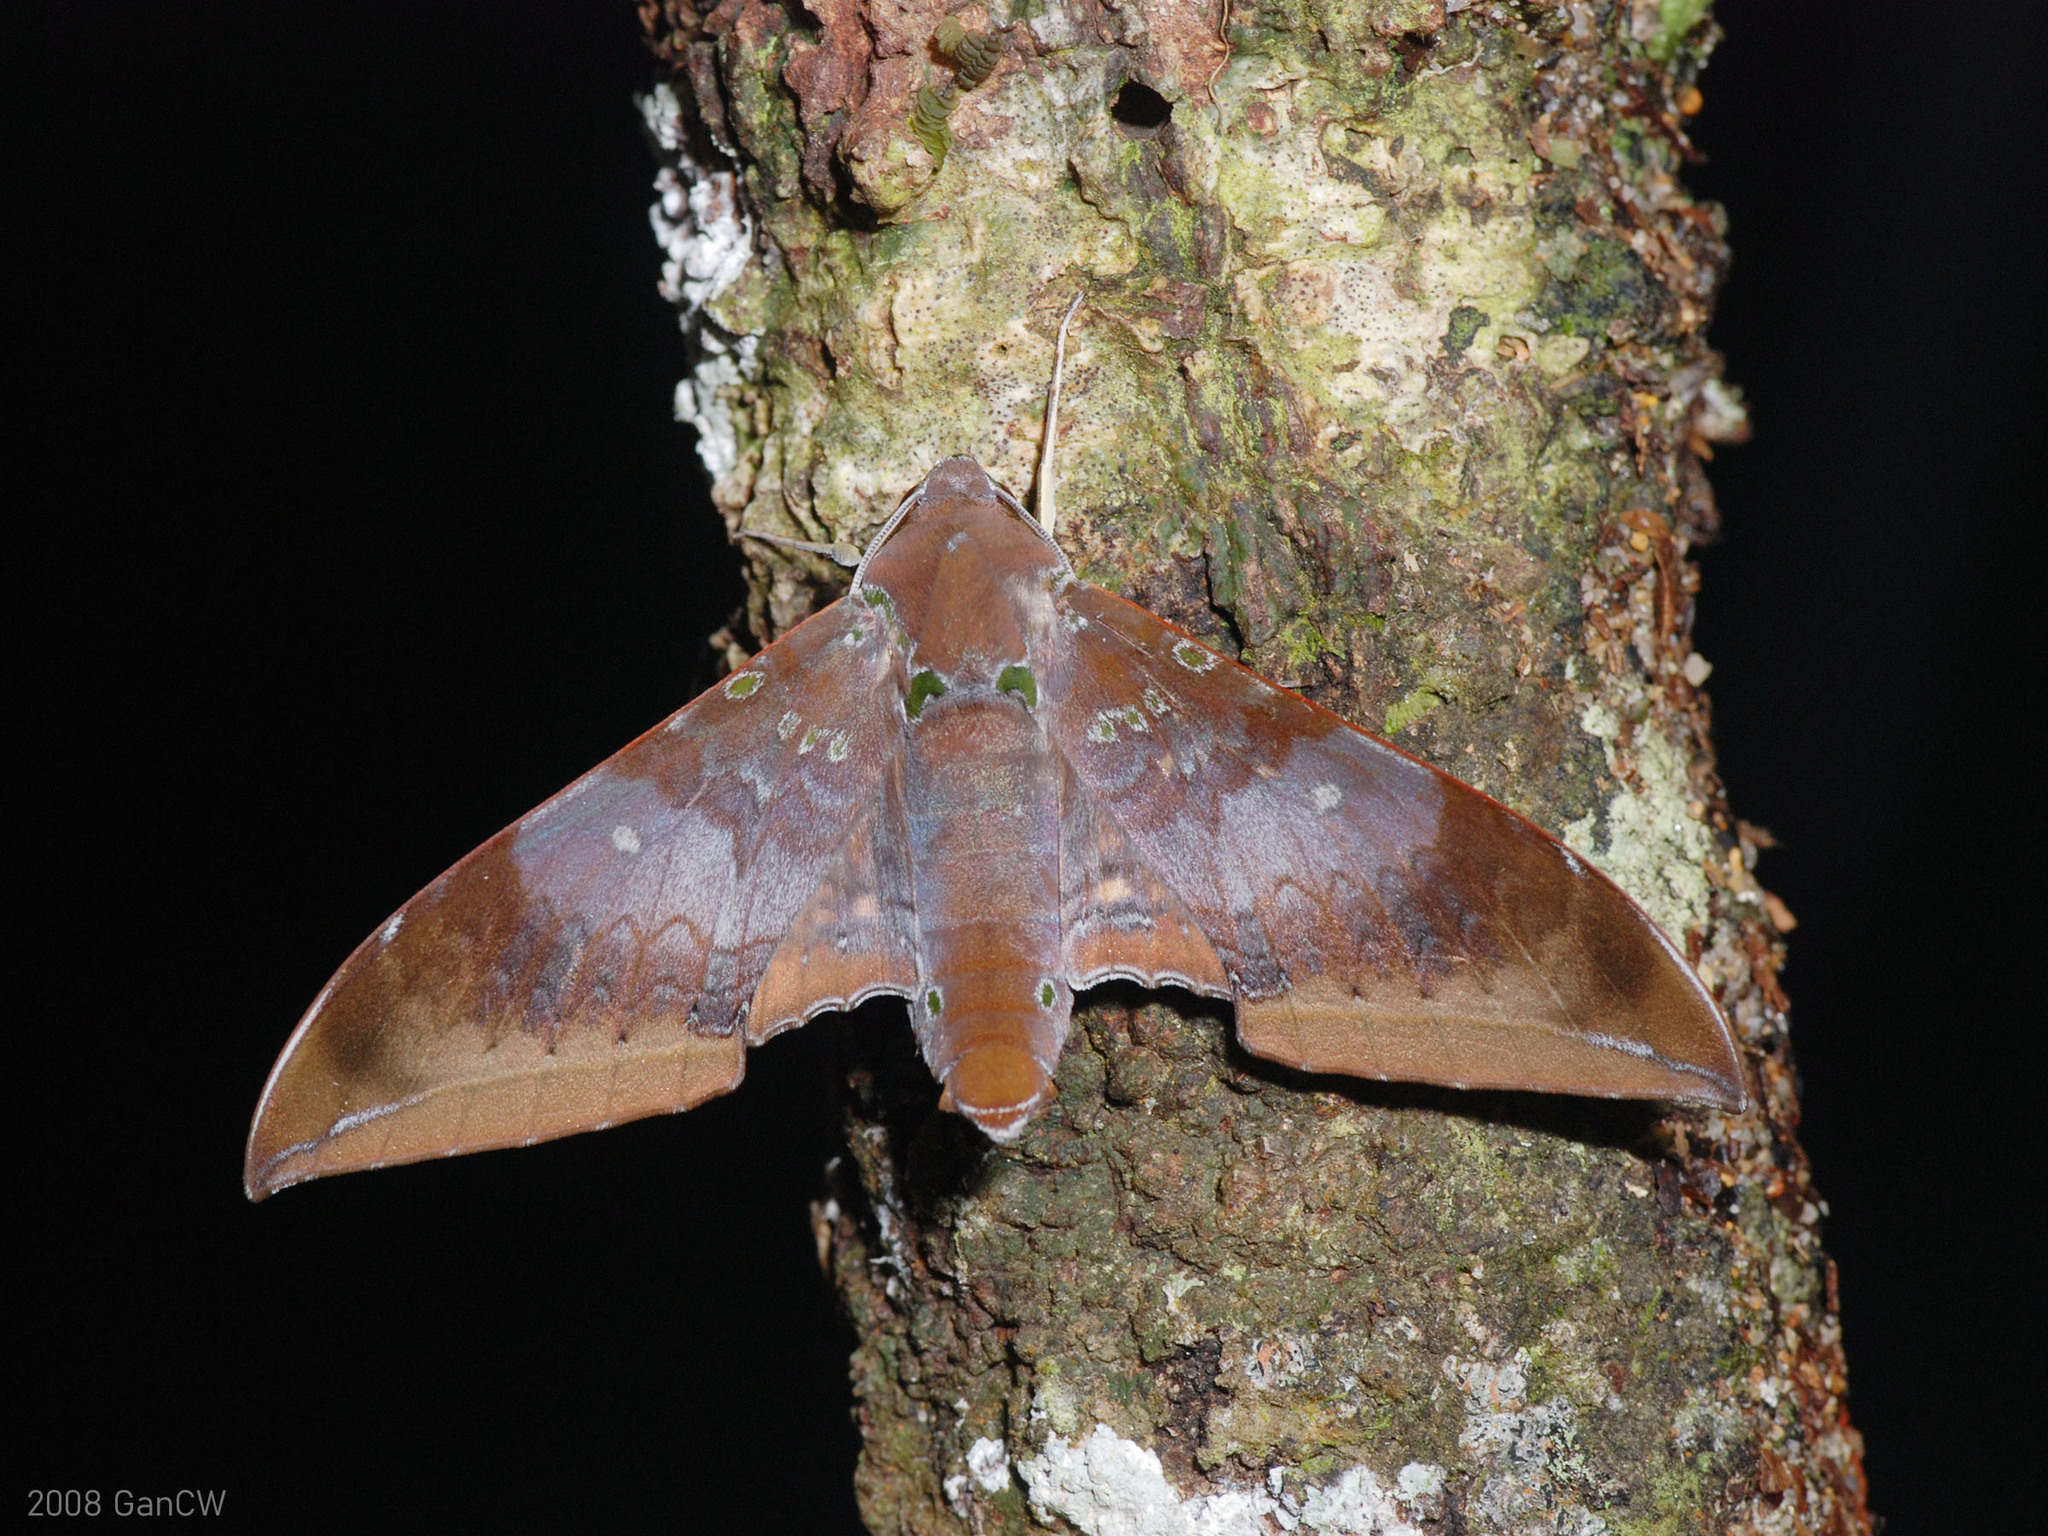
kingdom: Animalia
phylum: Arthropoda
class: Insecta
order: Lepidoptera
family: Sphingidae
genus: Ambulyx
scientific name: Ambulyx moorei
